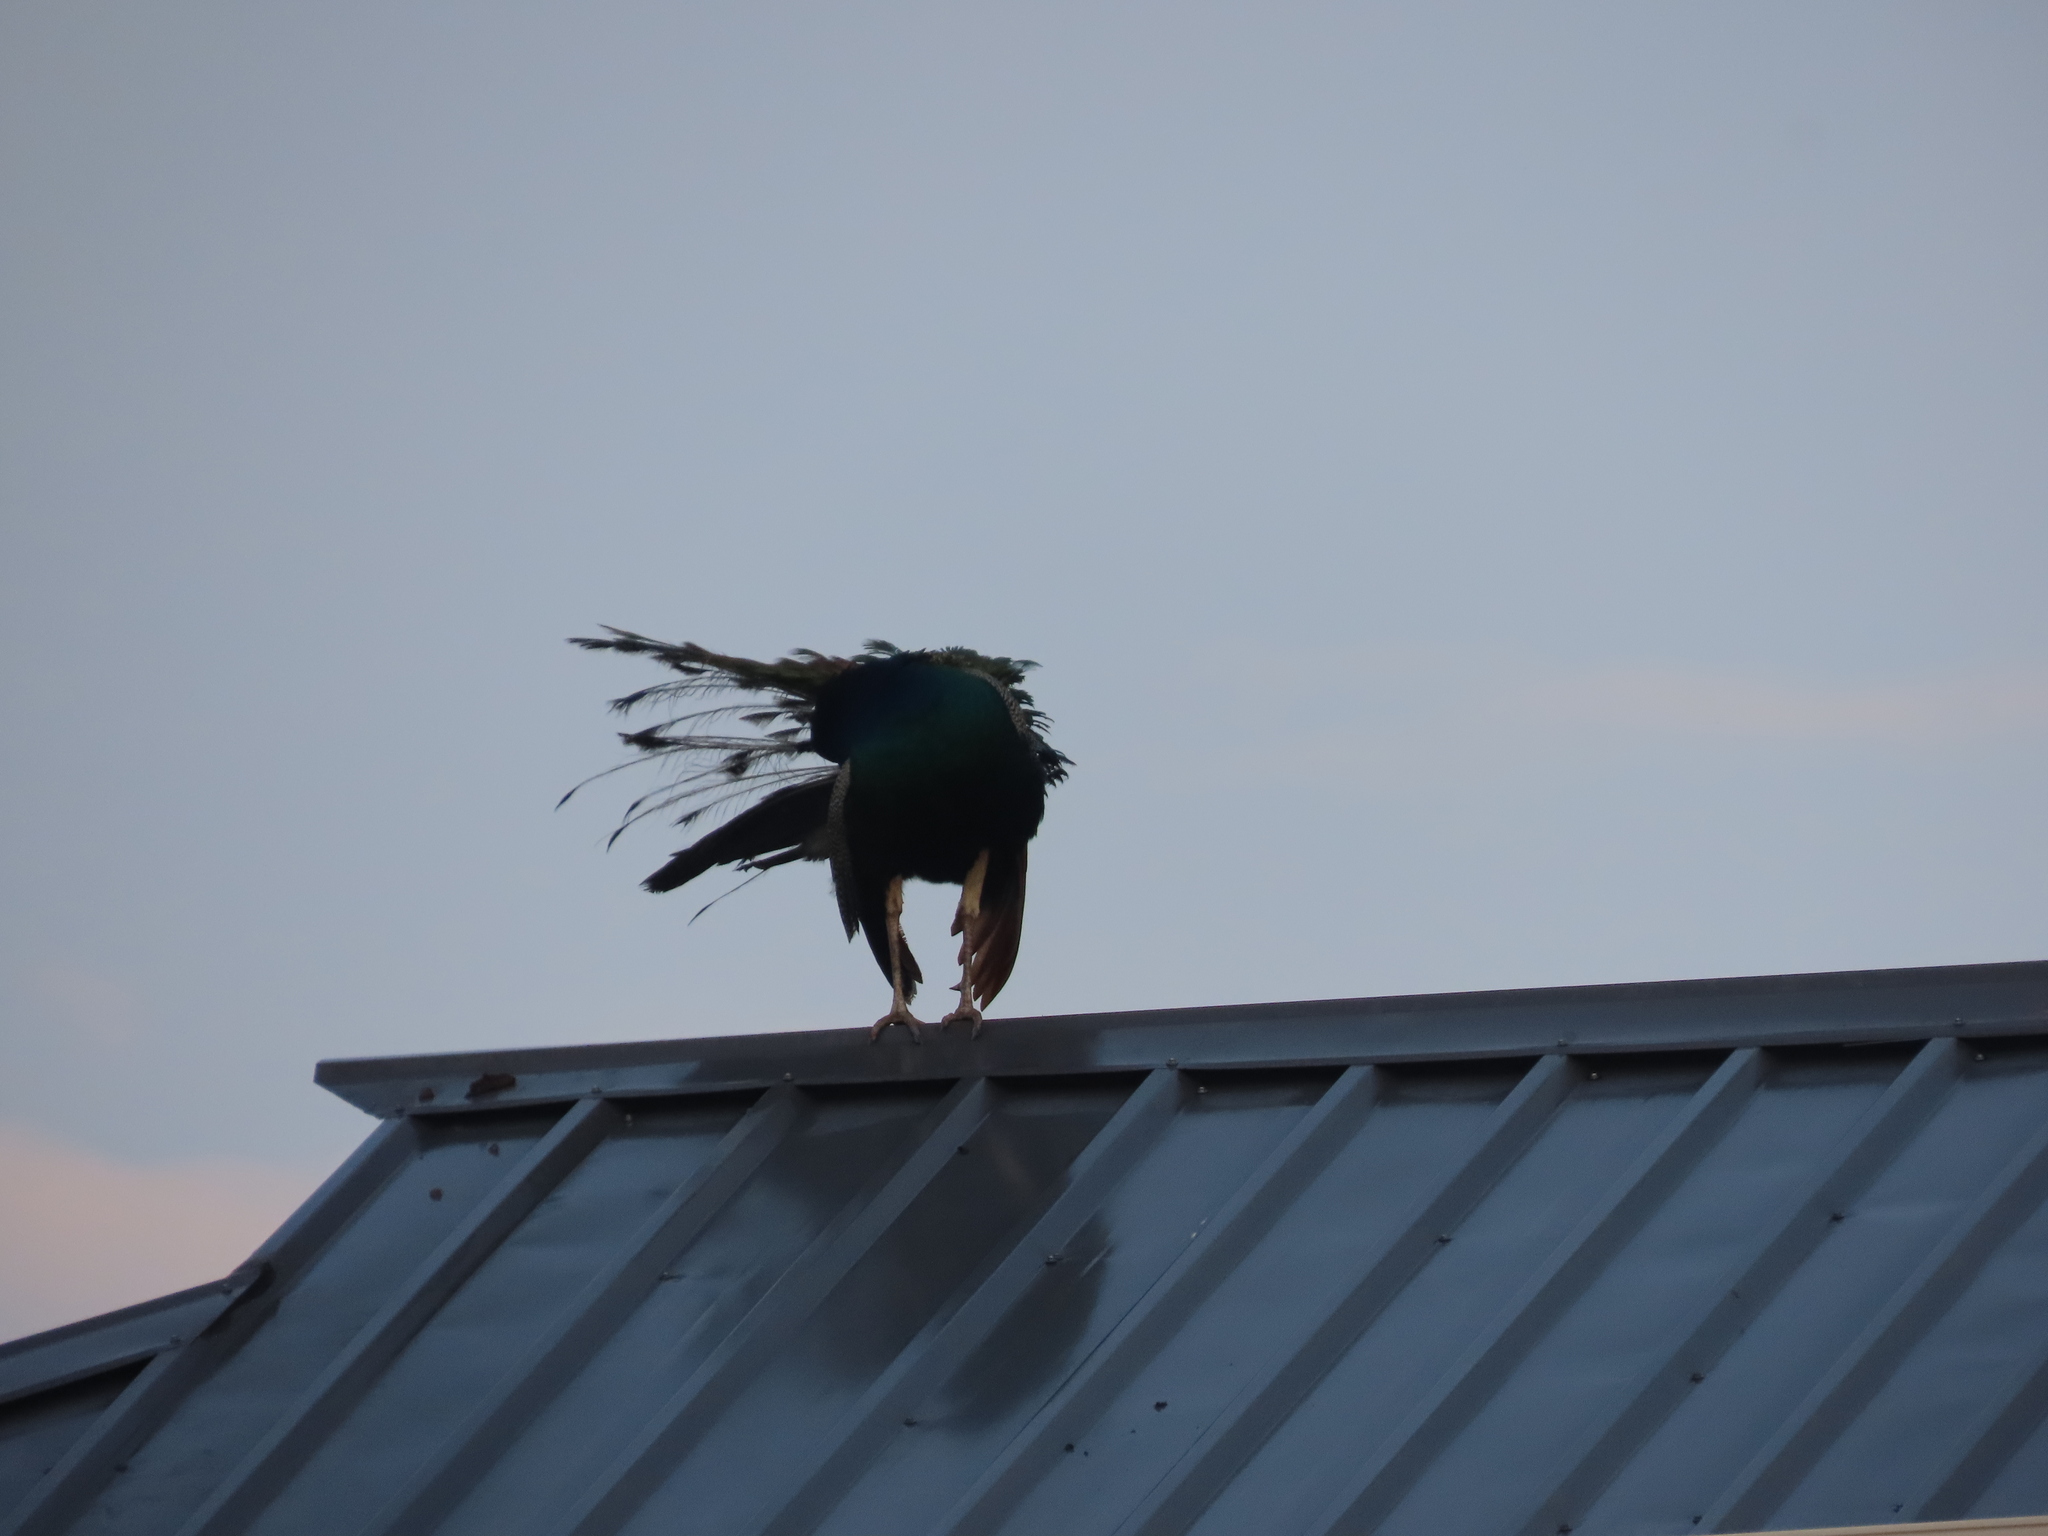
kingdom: Animalia
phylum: Chordata
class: Aves
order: Galliformes
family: Phasianidae
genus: Pavo
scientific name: Pavo cristatus
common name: Indian peafowl
